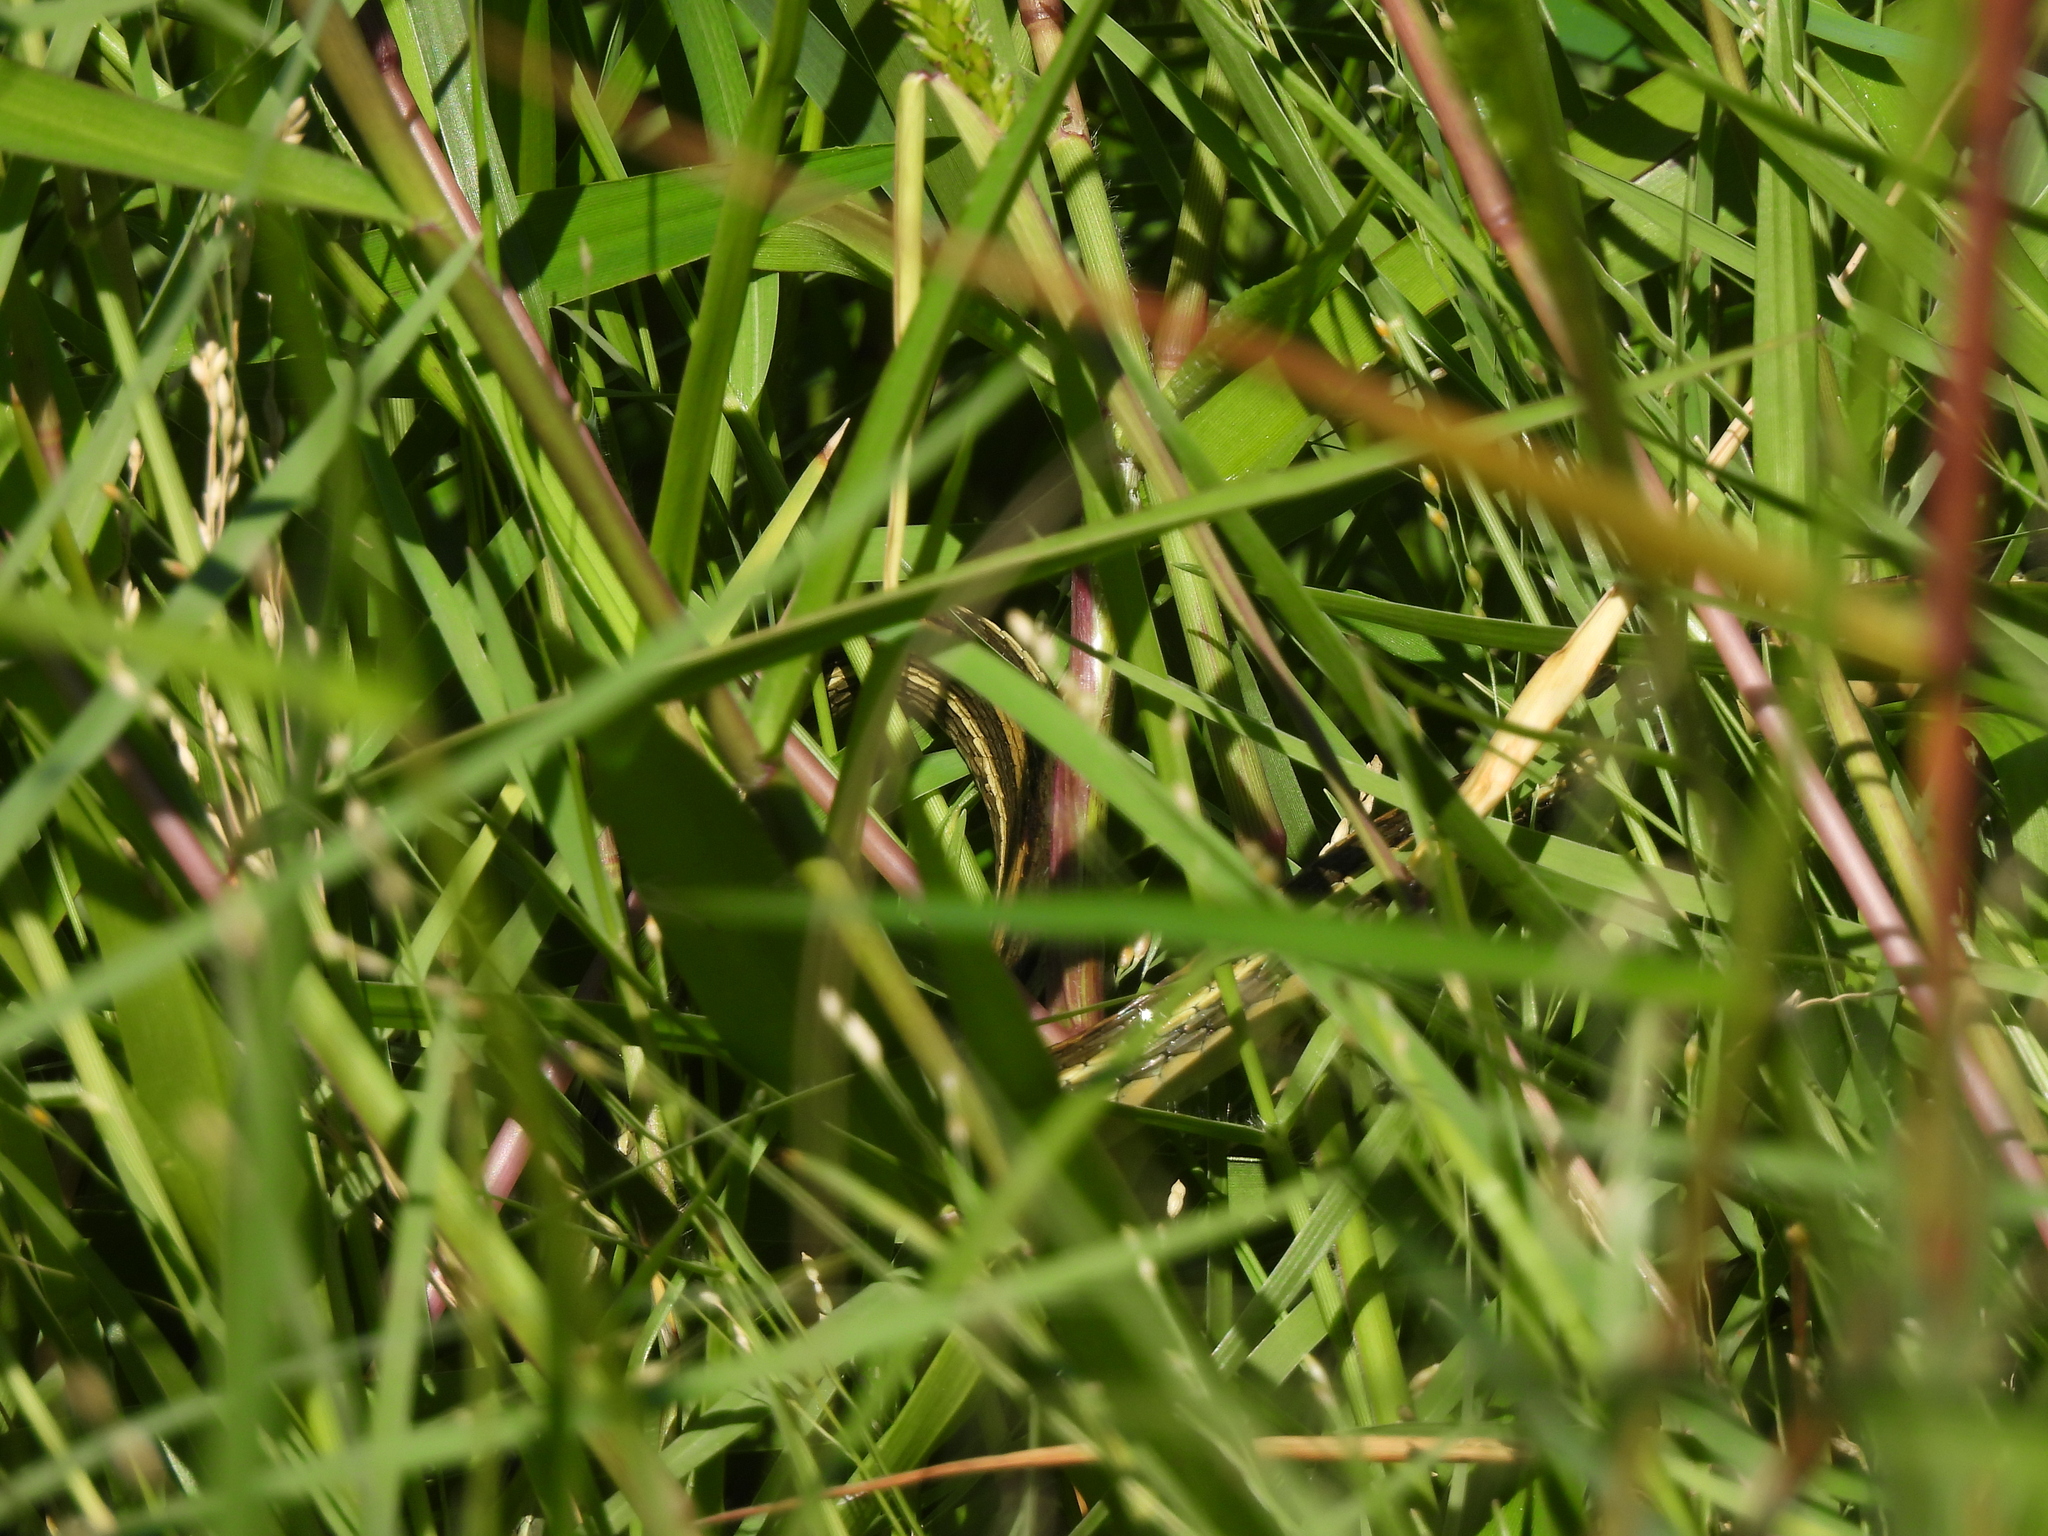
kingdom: Animalia
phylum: Chordata
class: Squamata
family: Colubridae
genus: Thamnophis
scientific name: Thamnophis proximus
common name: Western ribbon snake
